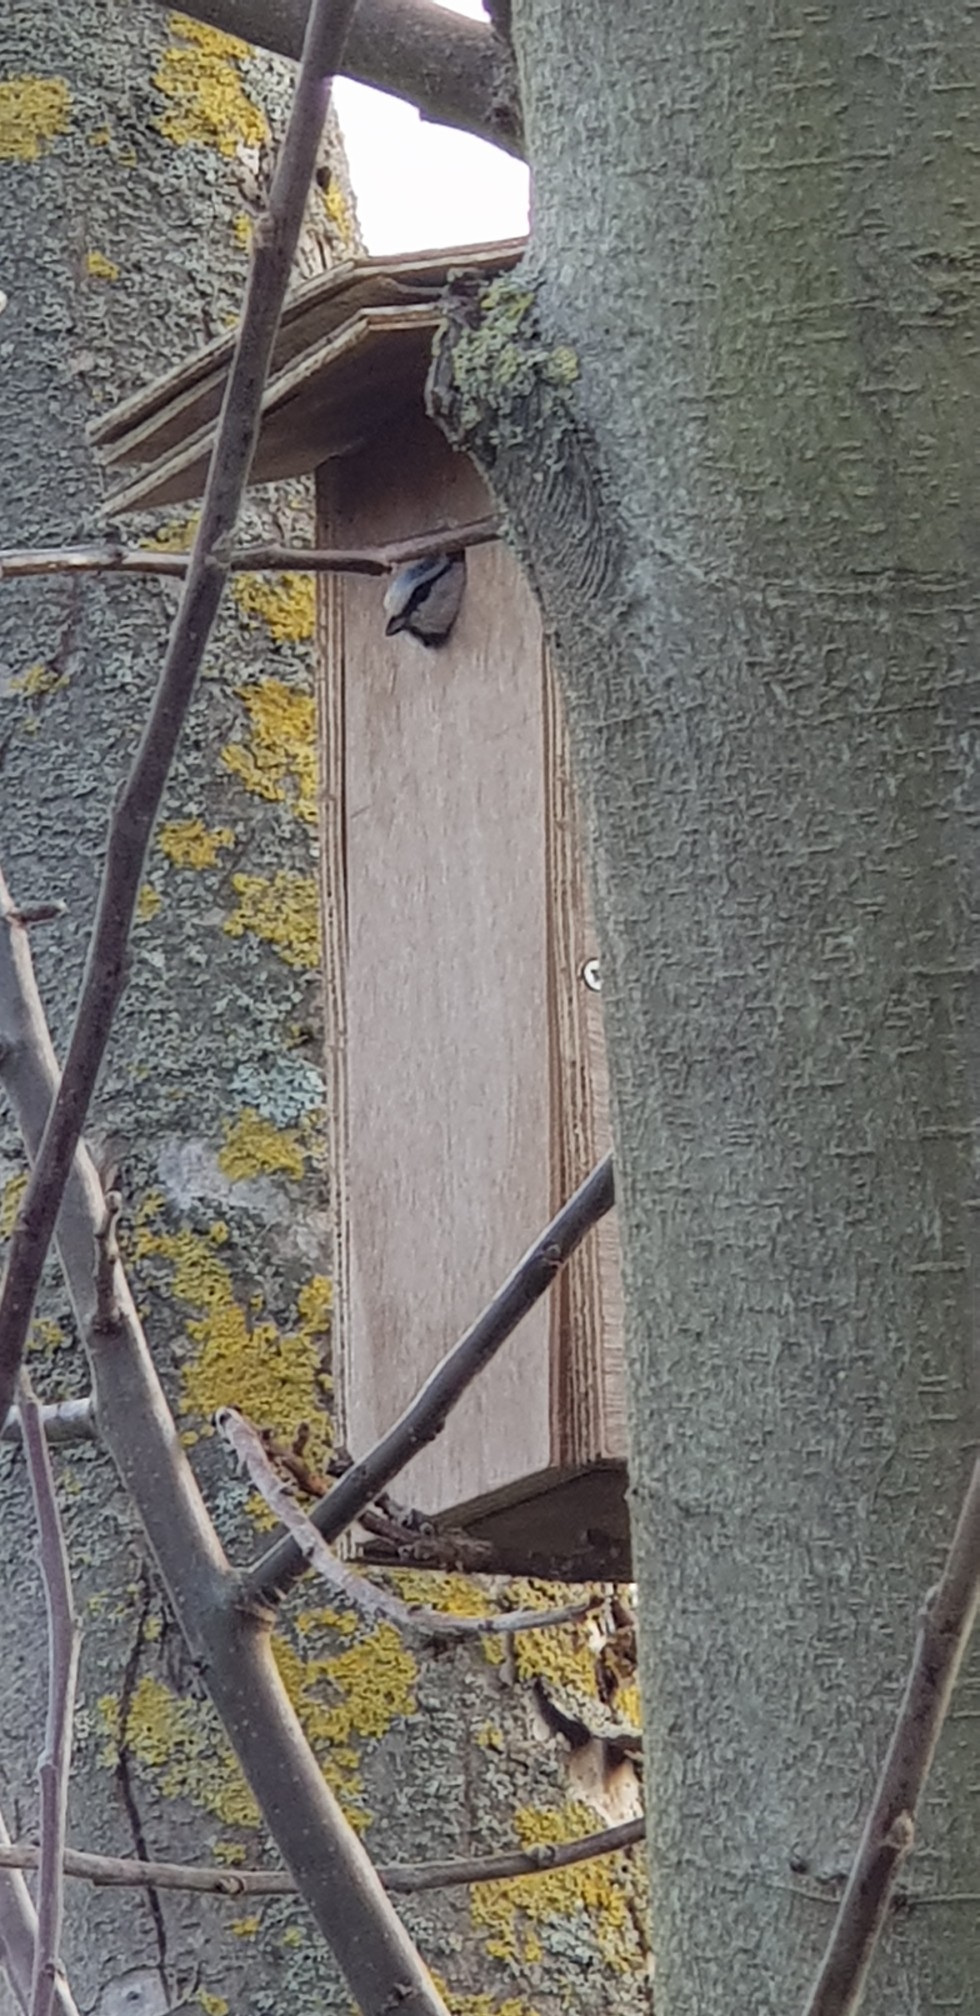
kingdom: Animalia
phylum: Chordata
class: Aves
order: Passeriformes
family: Paridae
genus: Cyanistes
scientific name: Cyanistes caeruleus
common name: Eurasian blue tit
